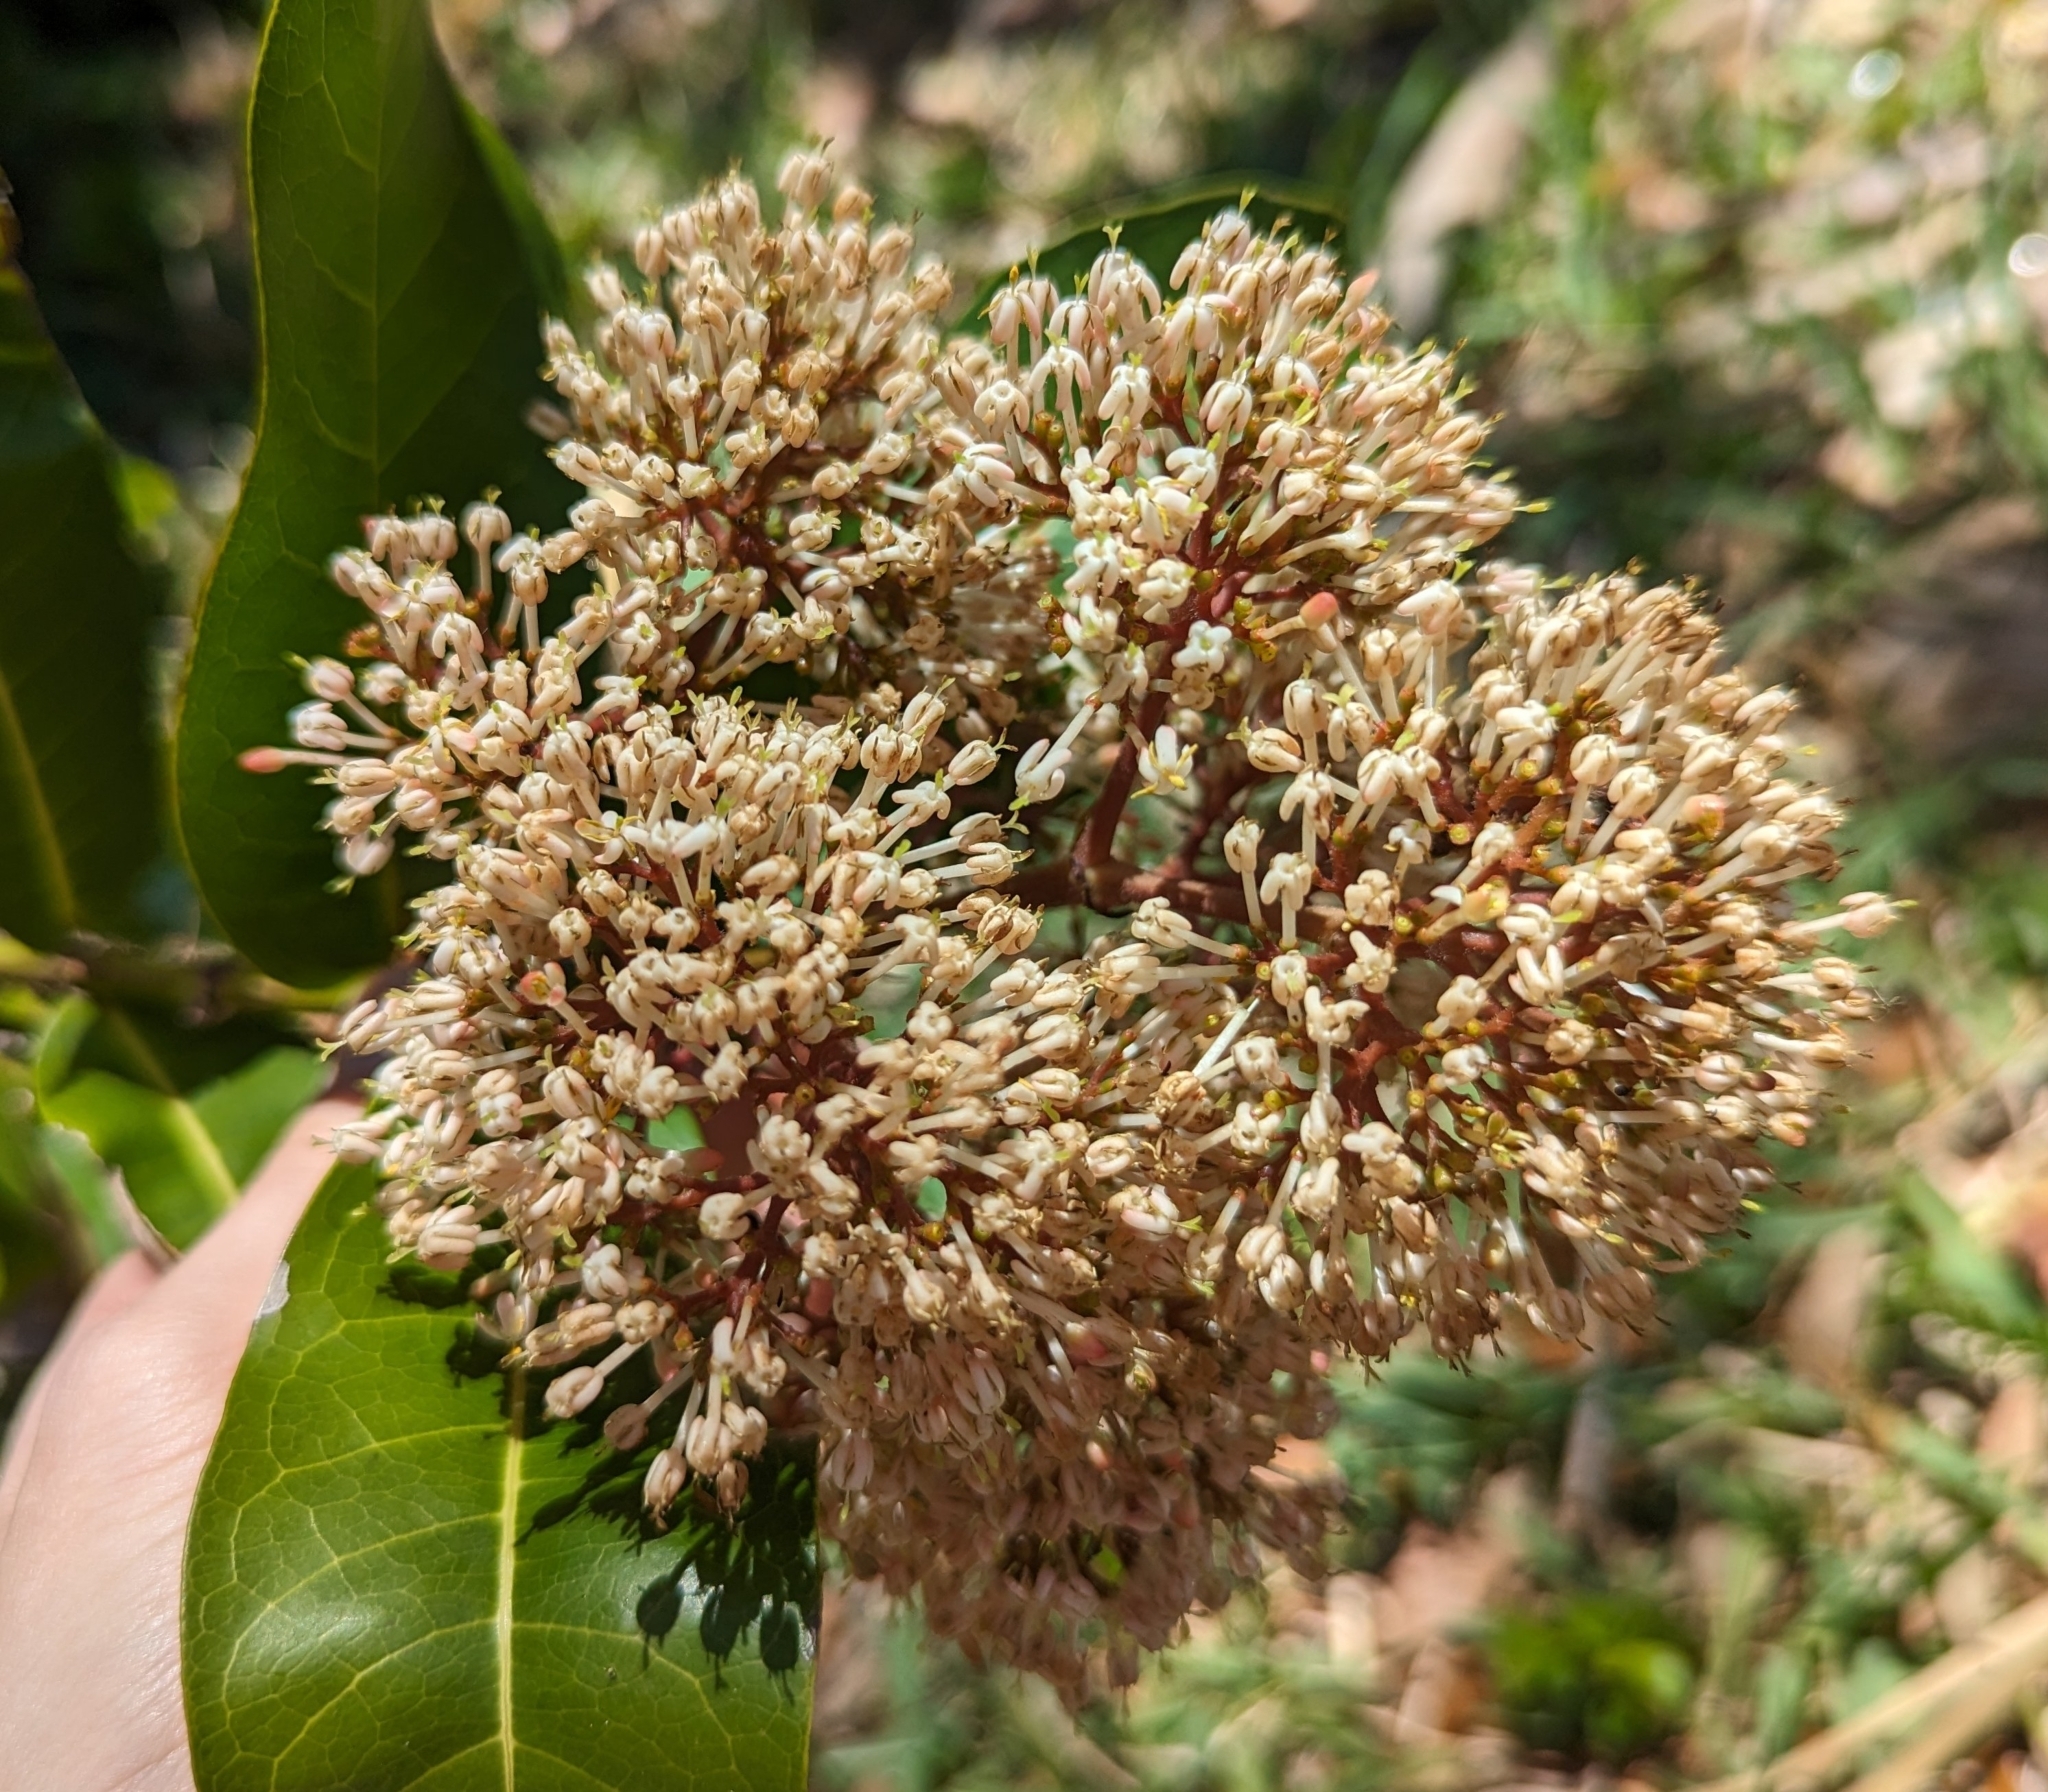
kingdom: Plantae
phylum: Tracheophyta
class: Magnoliopsida
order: Myrtales
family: Myrtaceae
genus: Pimenta
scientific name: Pimenta dioica
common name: Allspice
